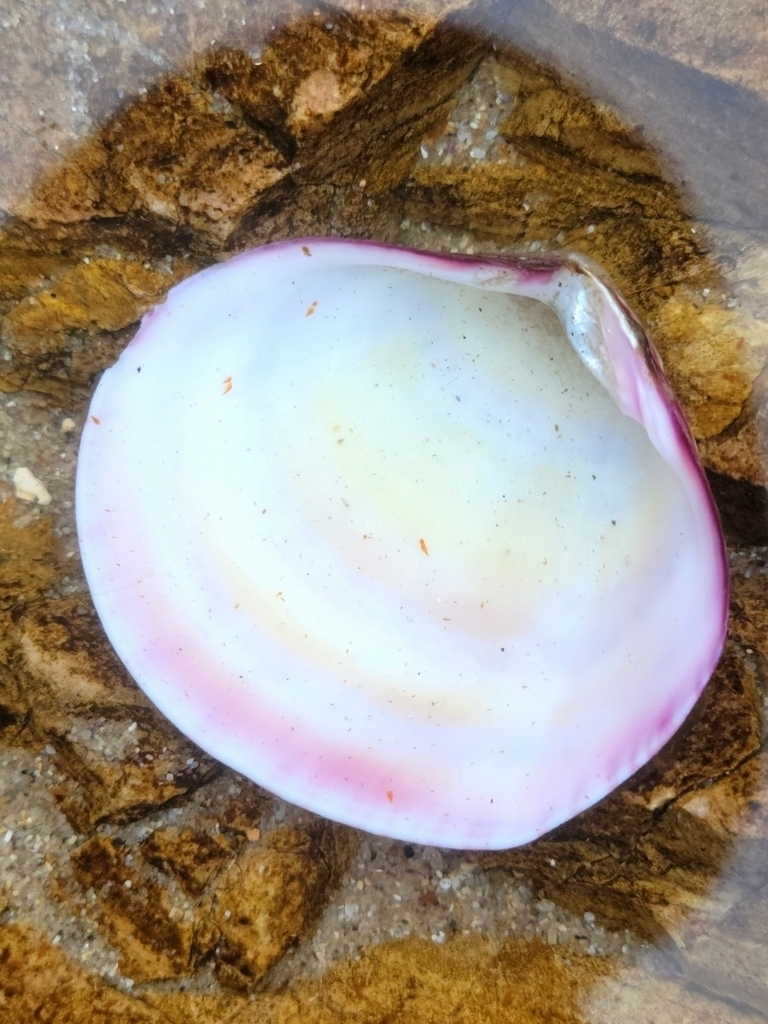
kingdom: Animalia
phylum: Mollusca
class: Bivalvia
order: Cardiida
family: Semelidae
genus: Semele
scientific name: Semele rubropicta
